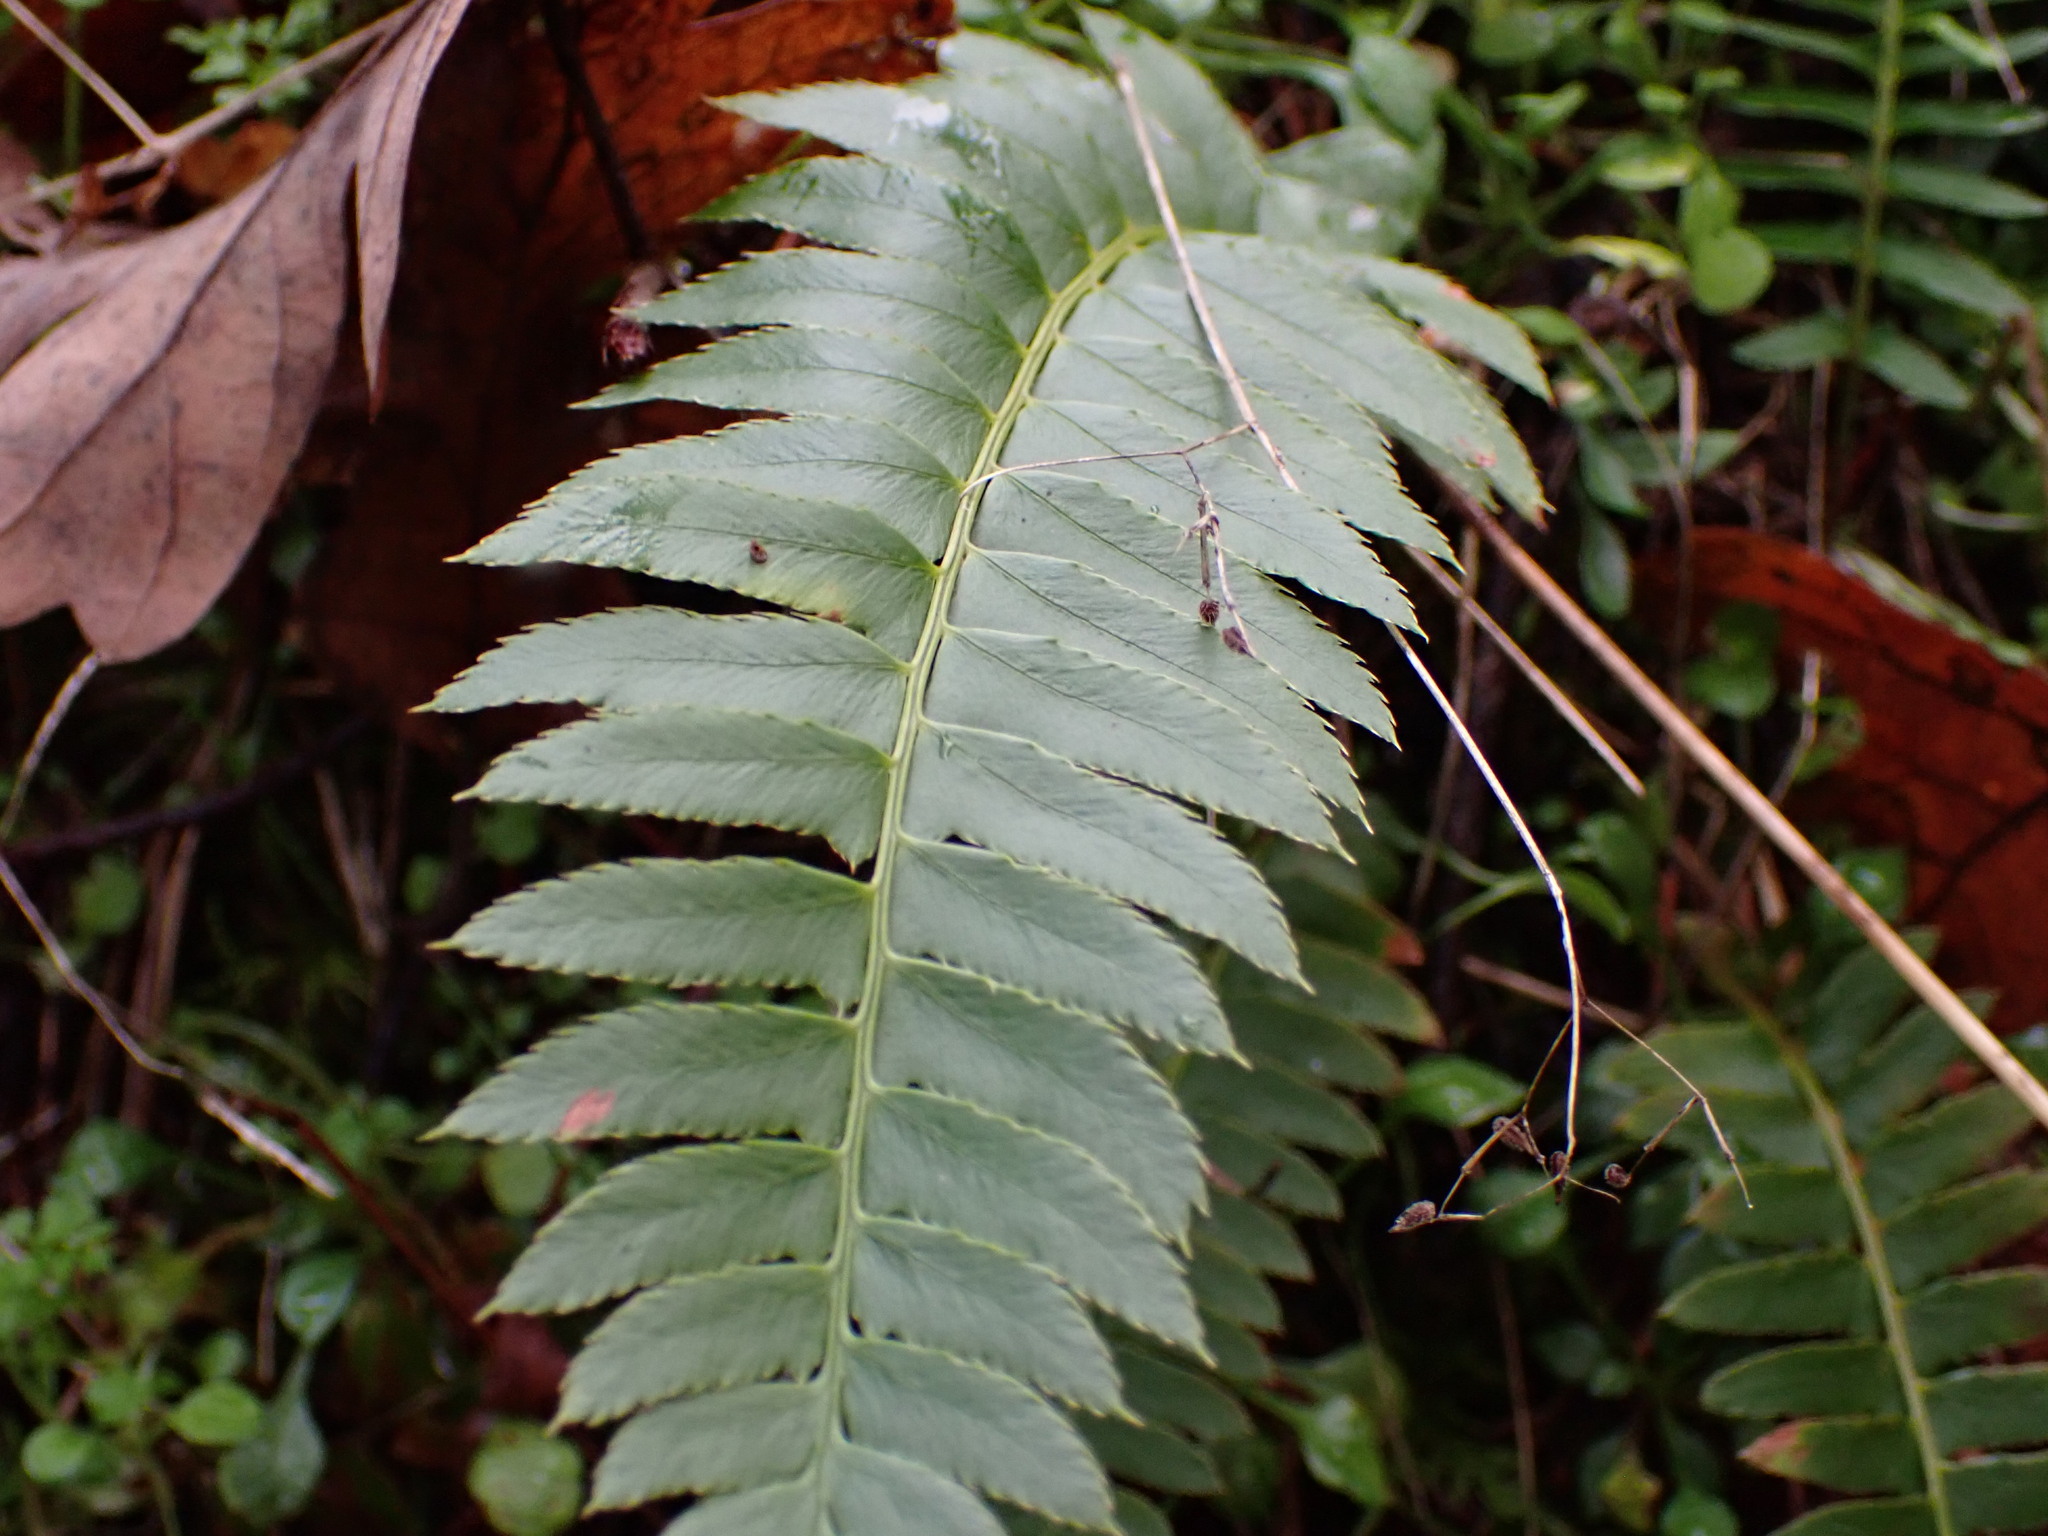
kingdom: Plantae
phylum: Tracheophyta
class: Polypodiopsida
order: Polypodiales
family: Dryopteridaceae
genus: Polystichum
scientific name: Polystichum munitum
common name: Western sword-fern
